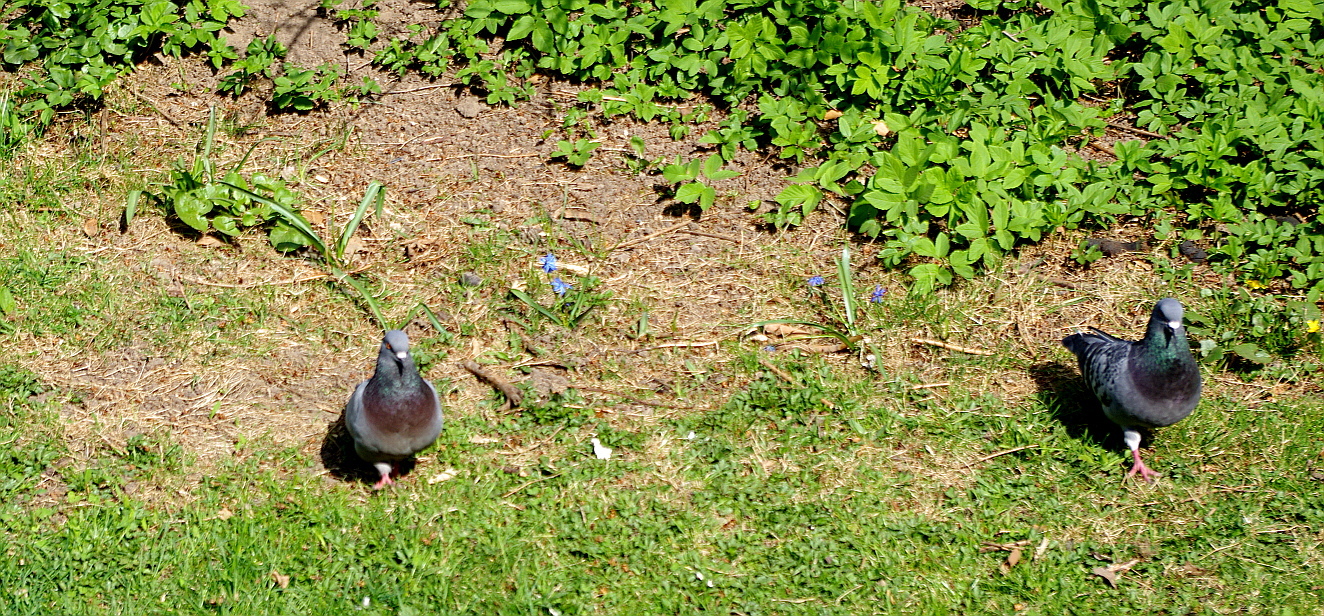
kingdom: Animalia
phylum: Chordata
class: Aves
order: Columbiformes
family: Columbidae
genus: Columba
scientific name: Columba livia
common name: Rock pigeon
